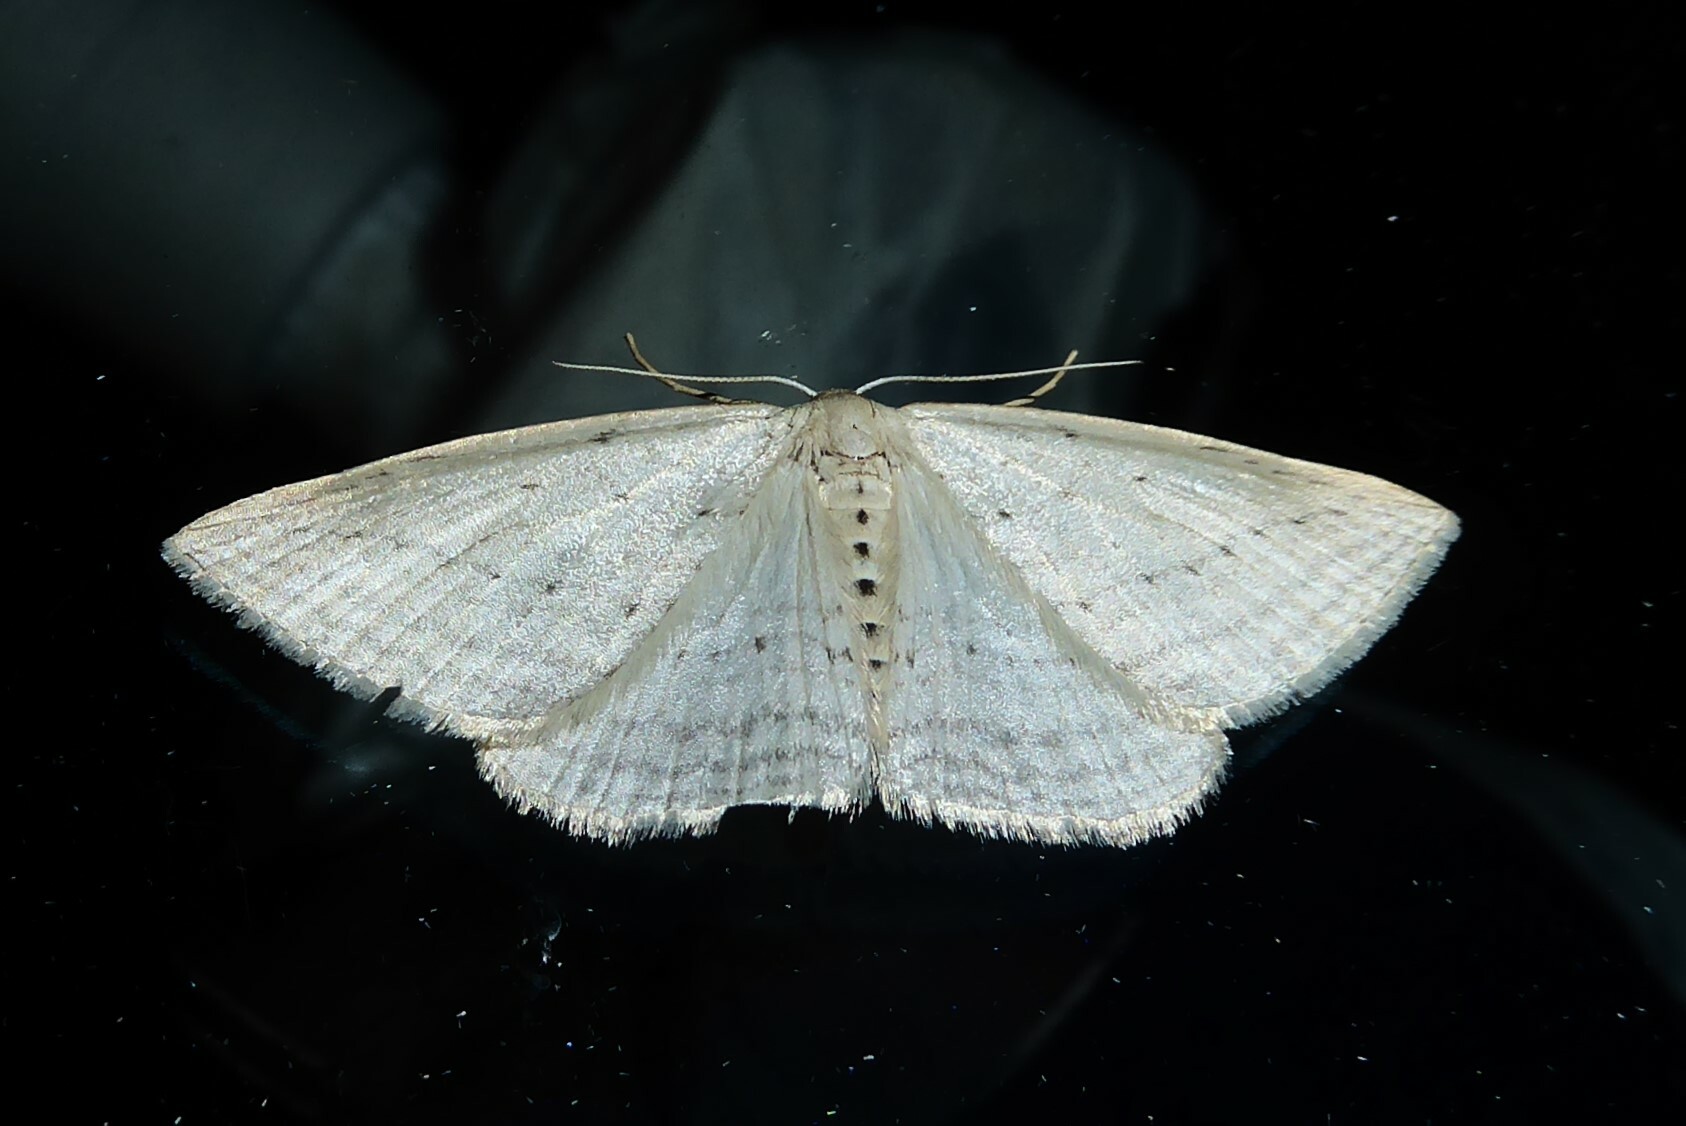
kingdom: Animalia
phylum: Arthropoda
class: Insecta
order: Lepidoptera
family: Geometridae
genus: Orthoclydon
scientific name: Orthoclydon praefectata
